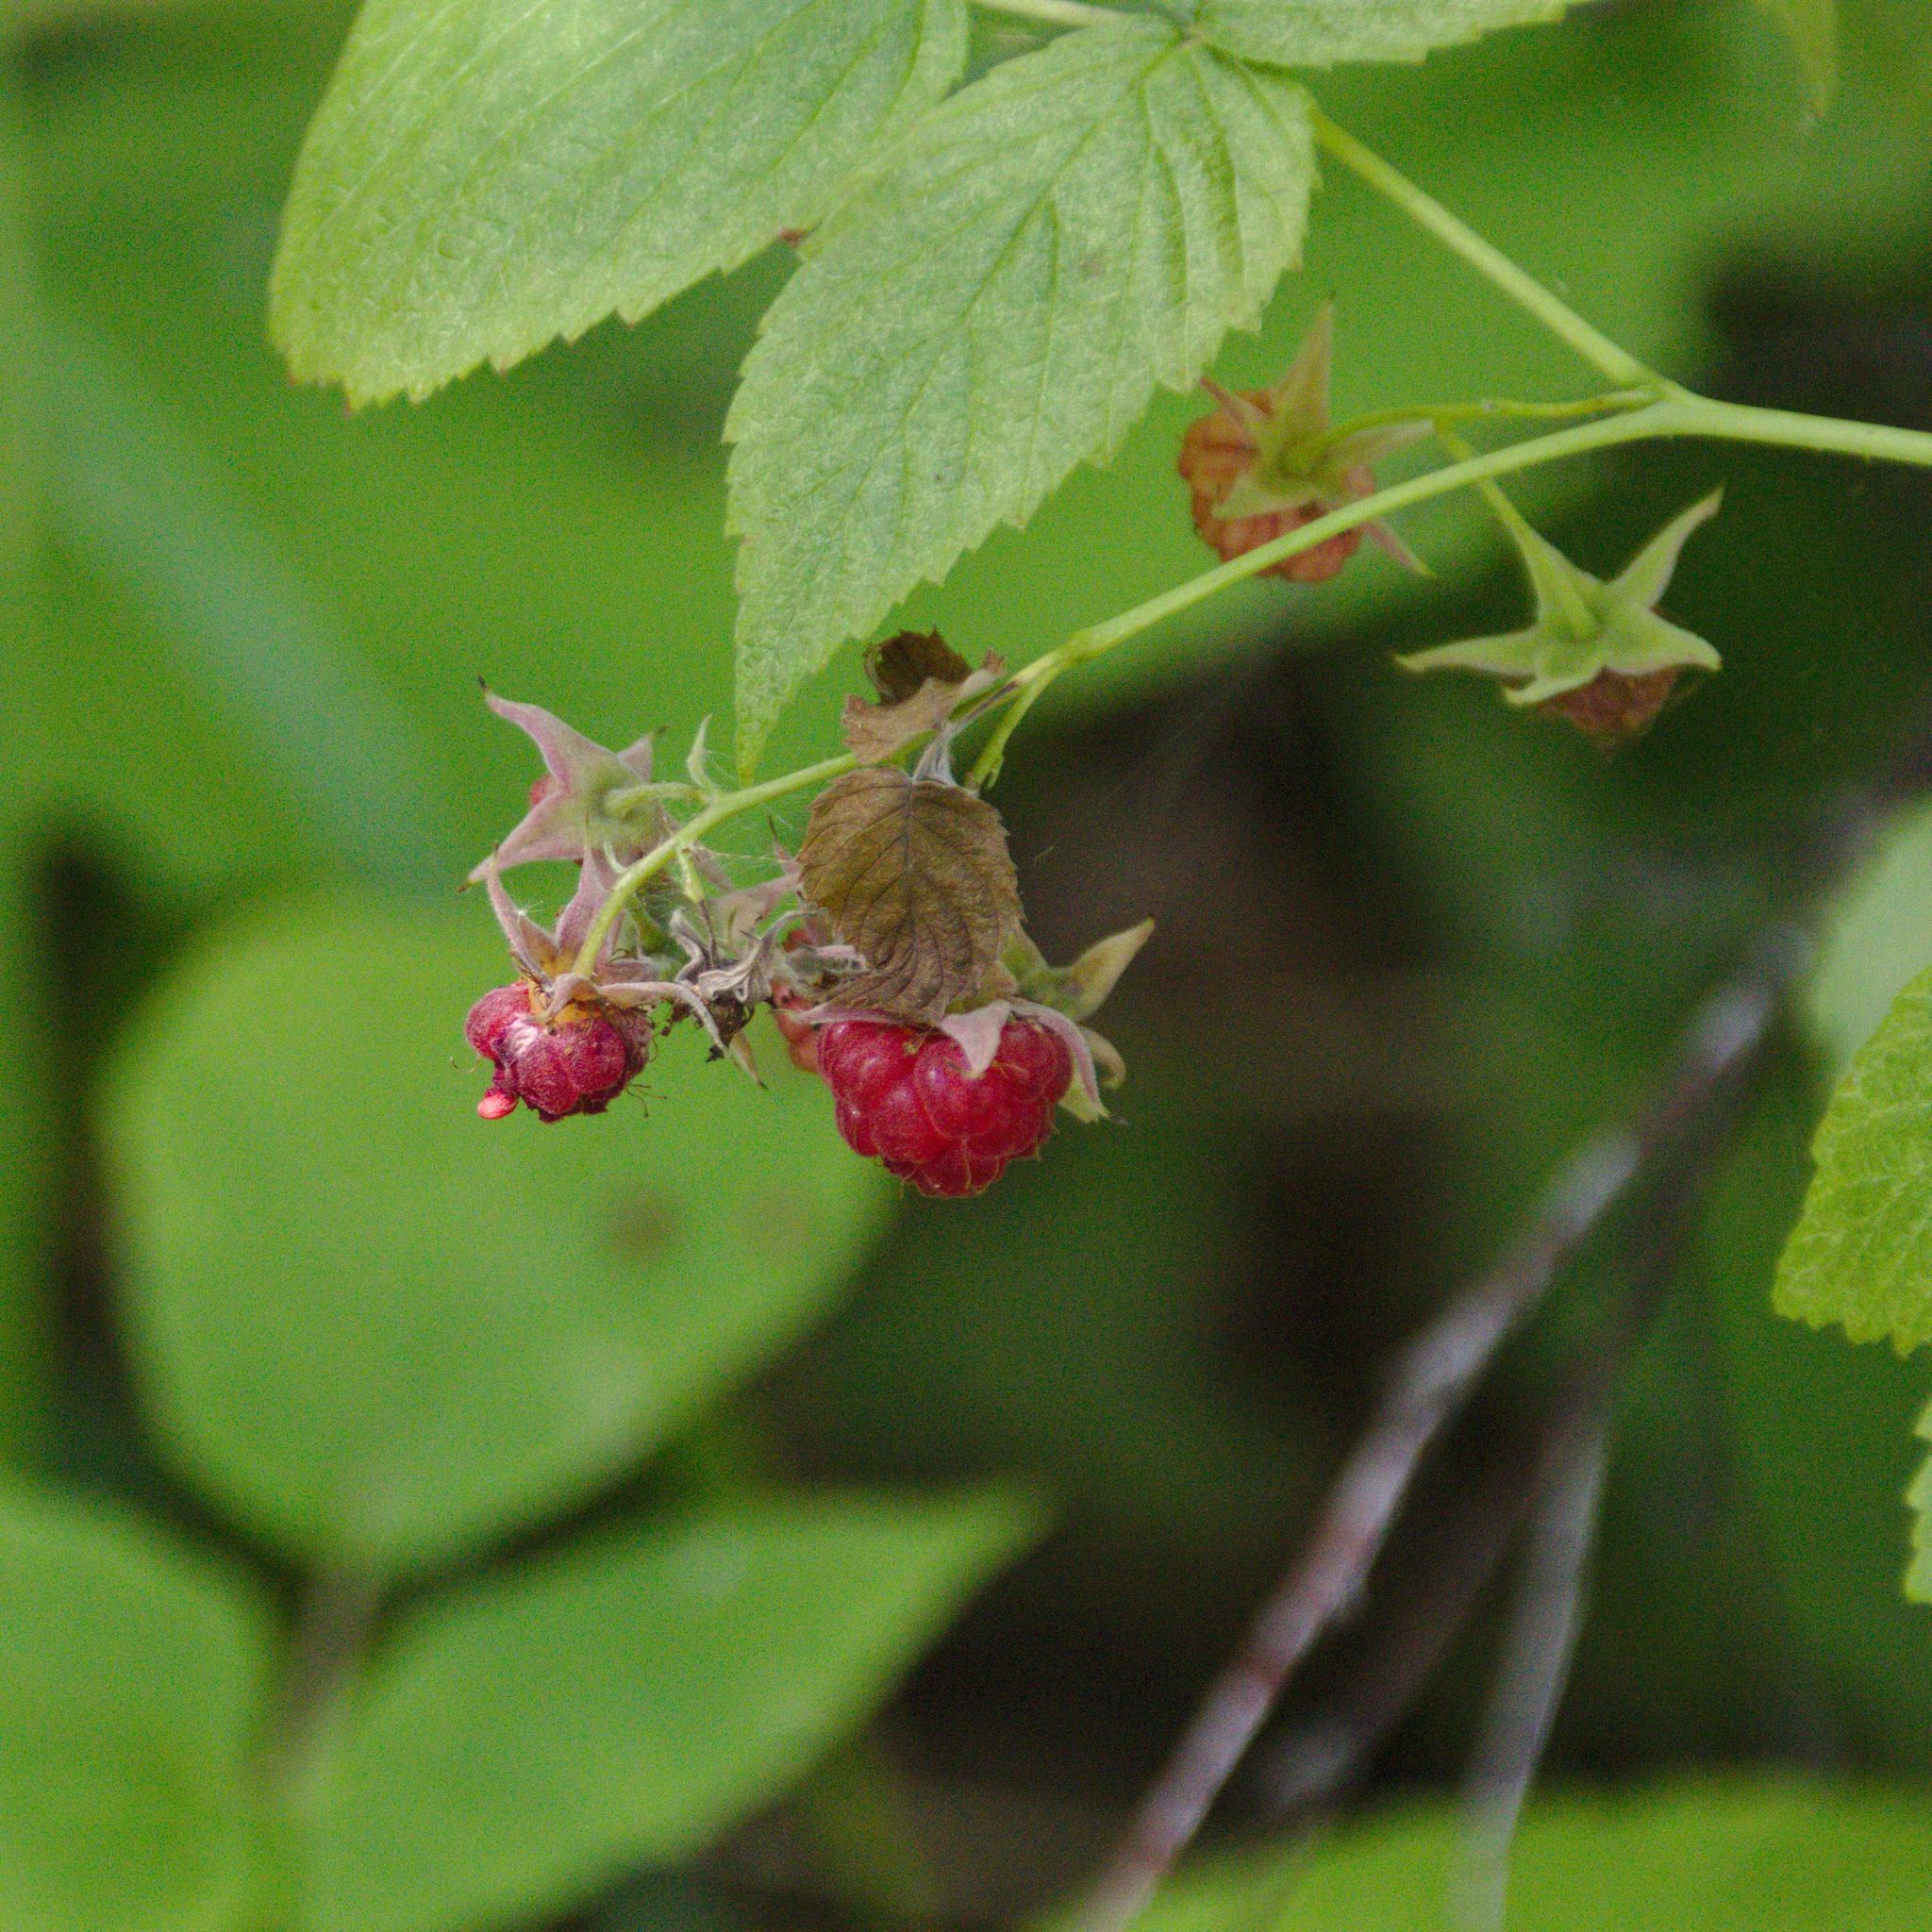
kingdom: Plantae
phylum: Tracheophyta
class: Magnoliopsida
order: Rosales
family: Rosaceae
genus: Rubus
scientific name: Rubus idaeus
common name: Raspberry
